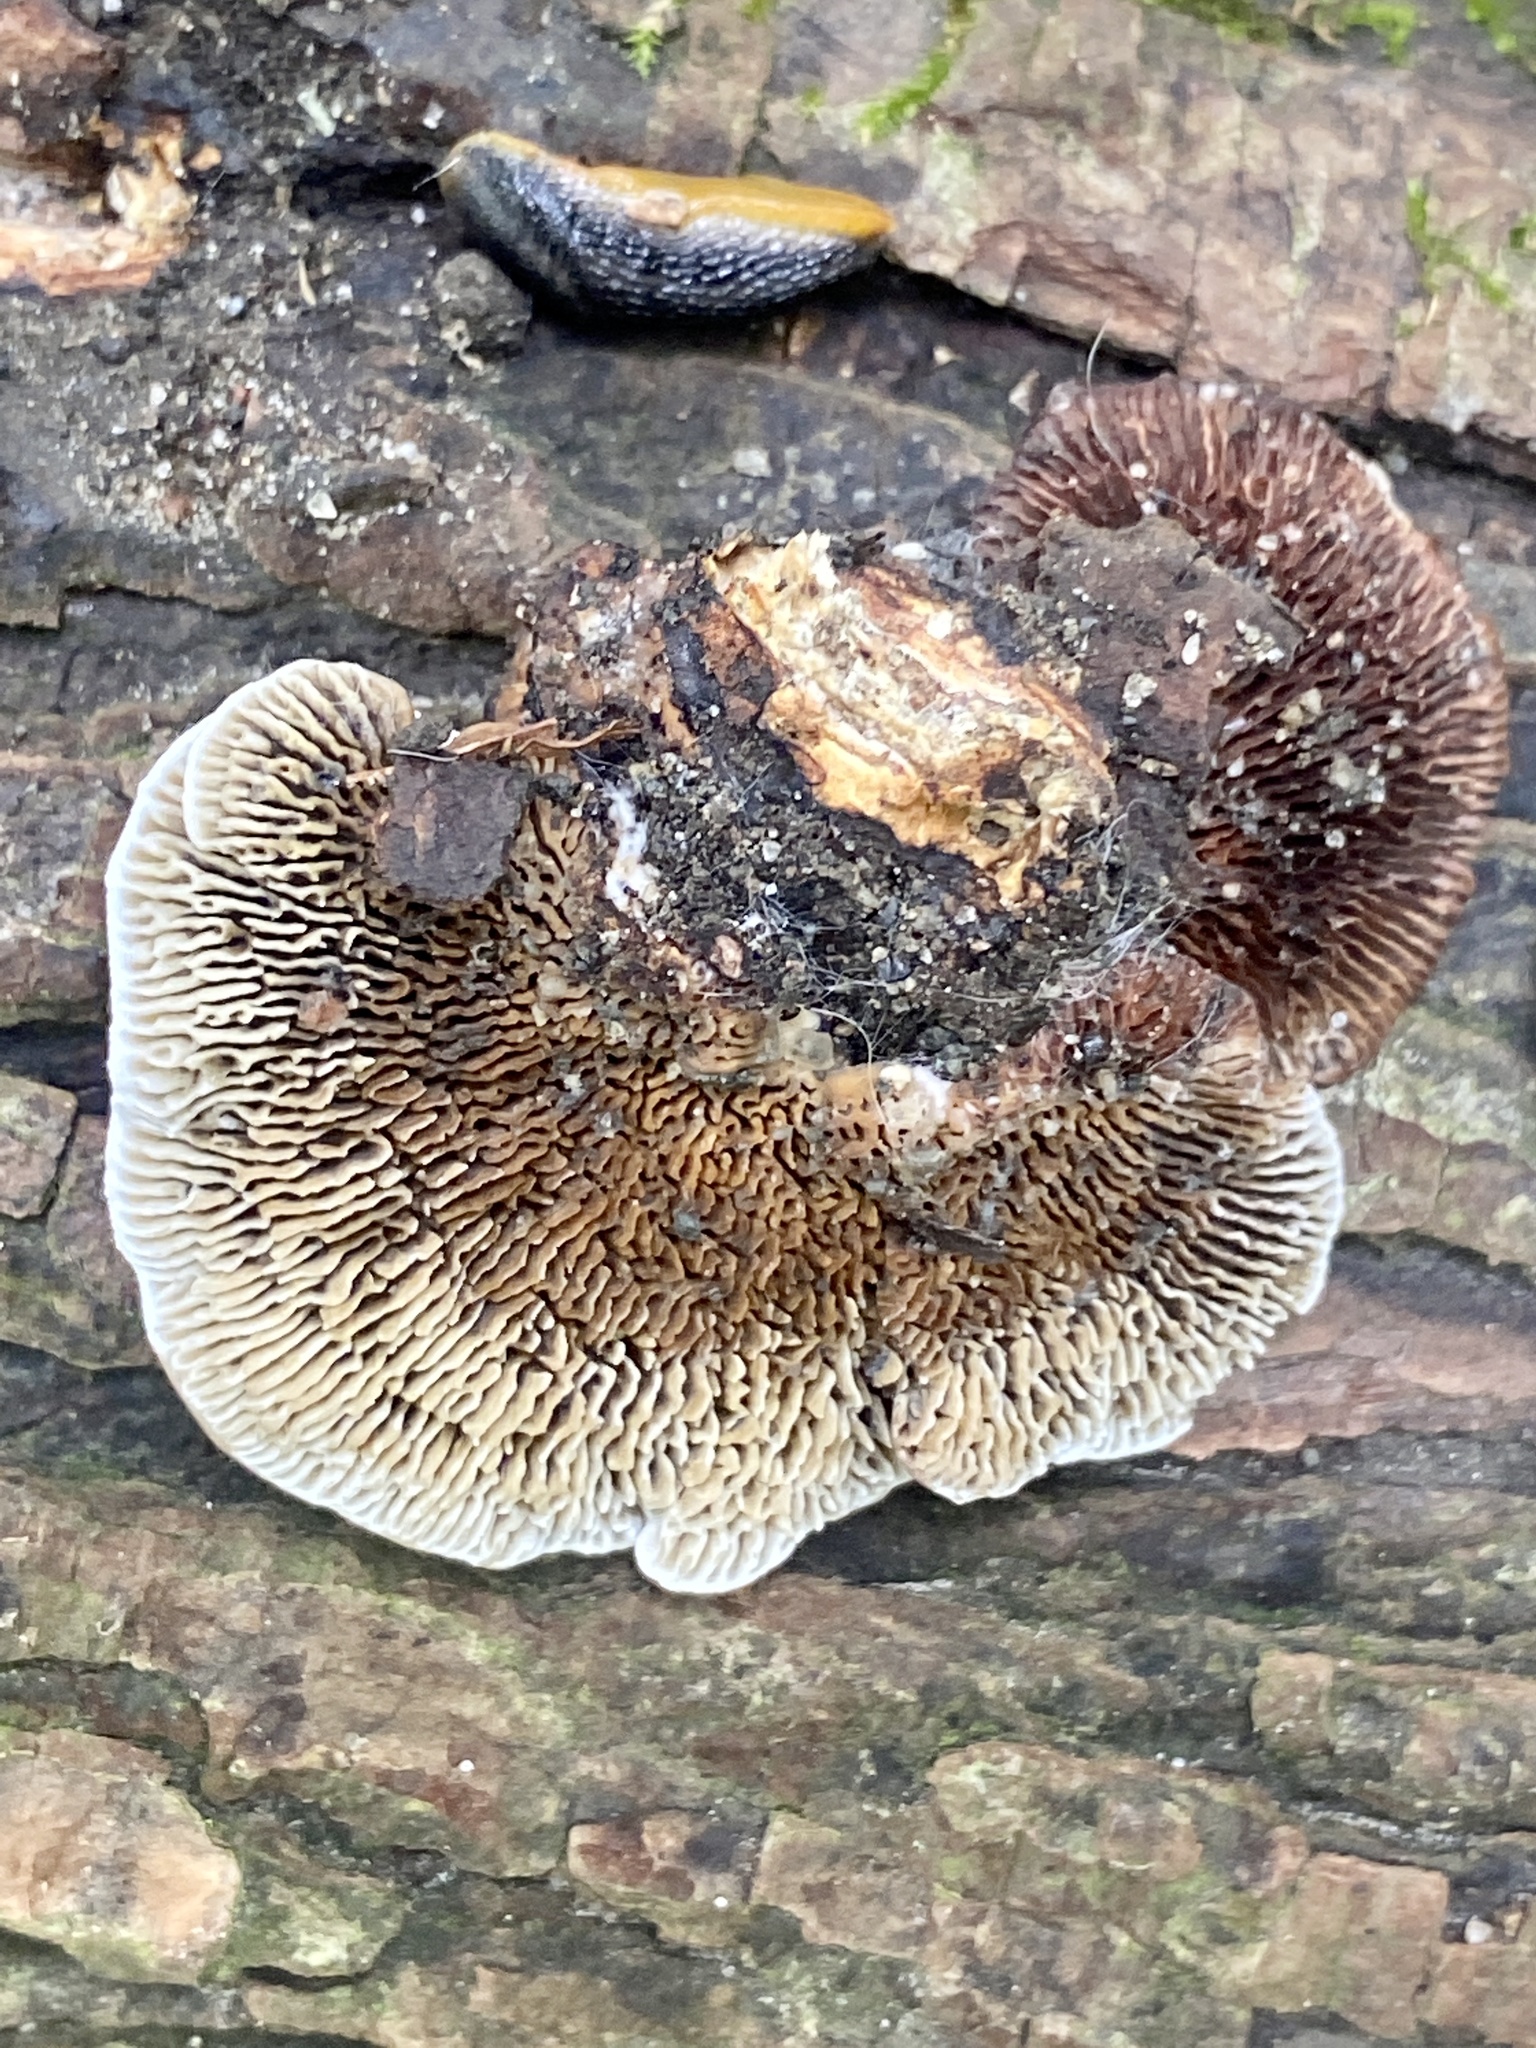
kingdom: Fungi
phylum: Basidiomycota
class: Agaricomycetes
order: Polyporales
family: Polyporaceae
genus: Daedaleopsis
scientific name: Daedaleopsis confragosa
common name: Blushing bracket
